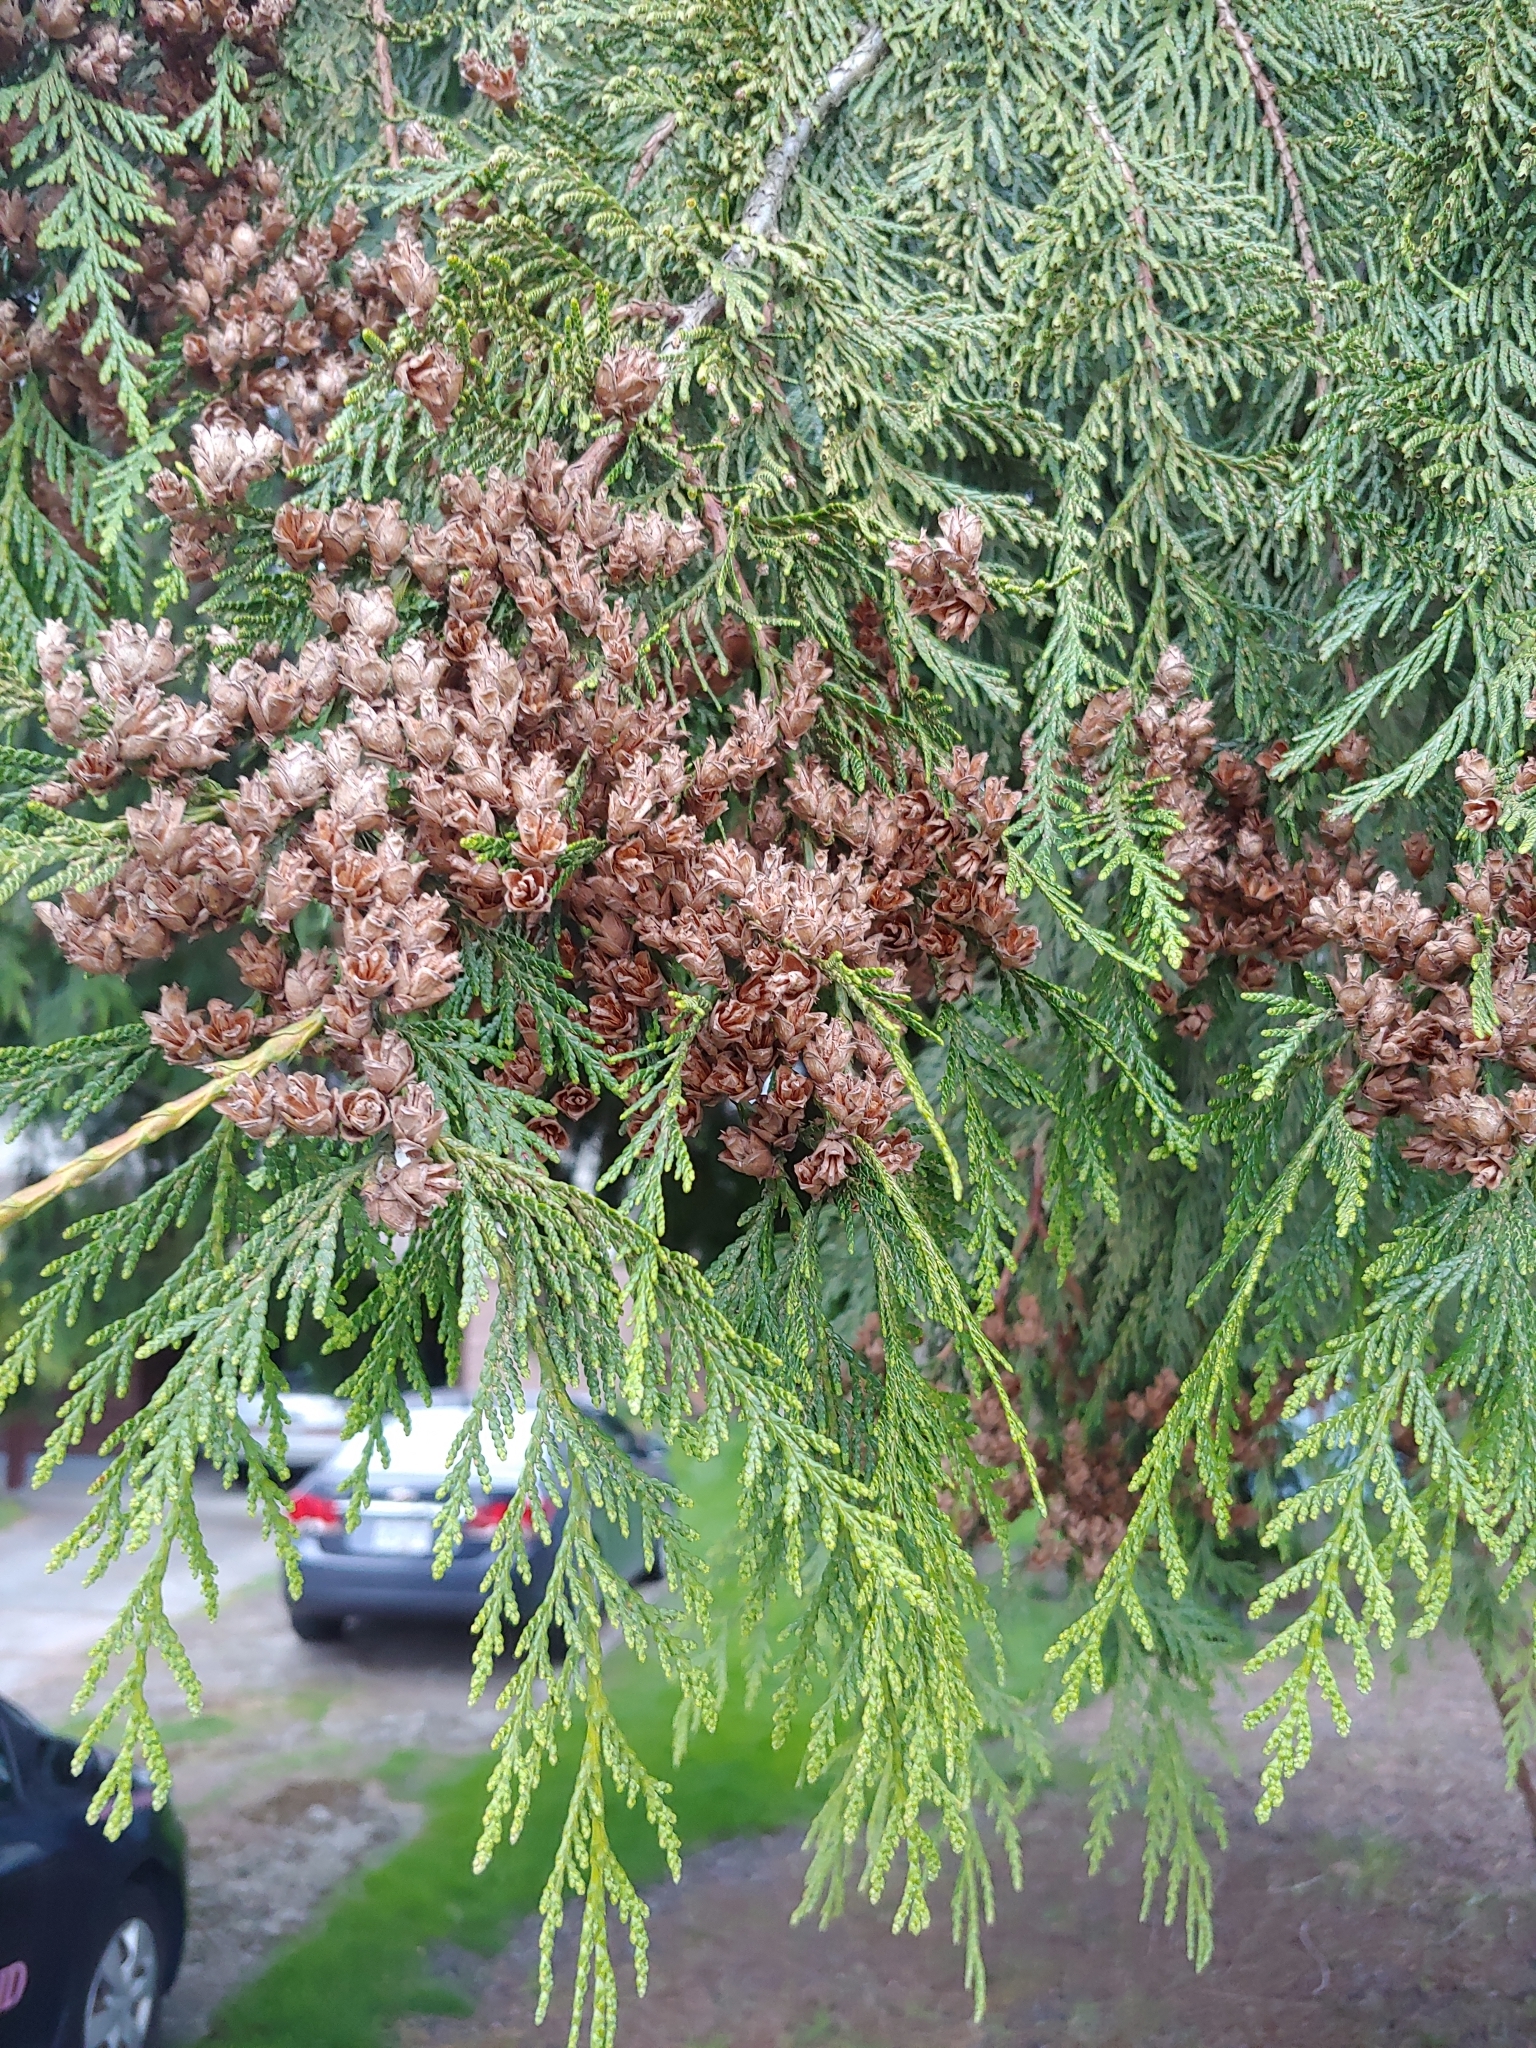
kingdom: Plantae
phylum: Tracheophyta
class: Pinopsida
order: Pinales
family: Cupressaceae
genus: Thuja
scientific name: Thuja plicata
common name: Western red-cedar
